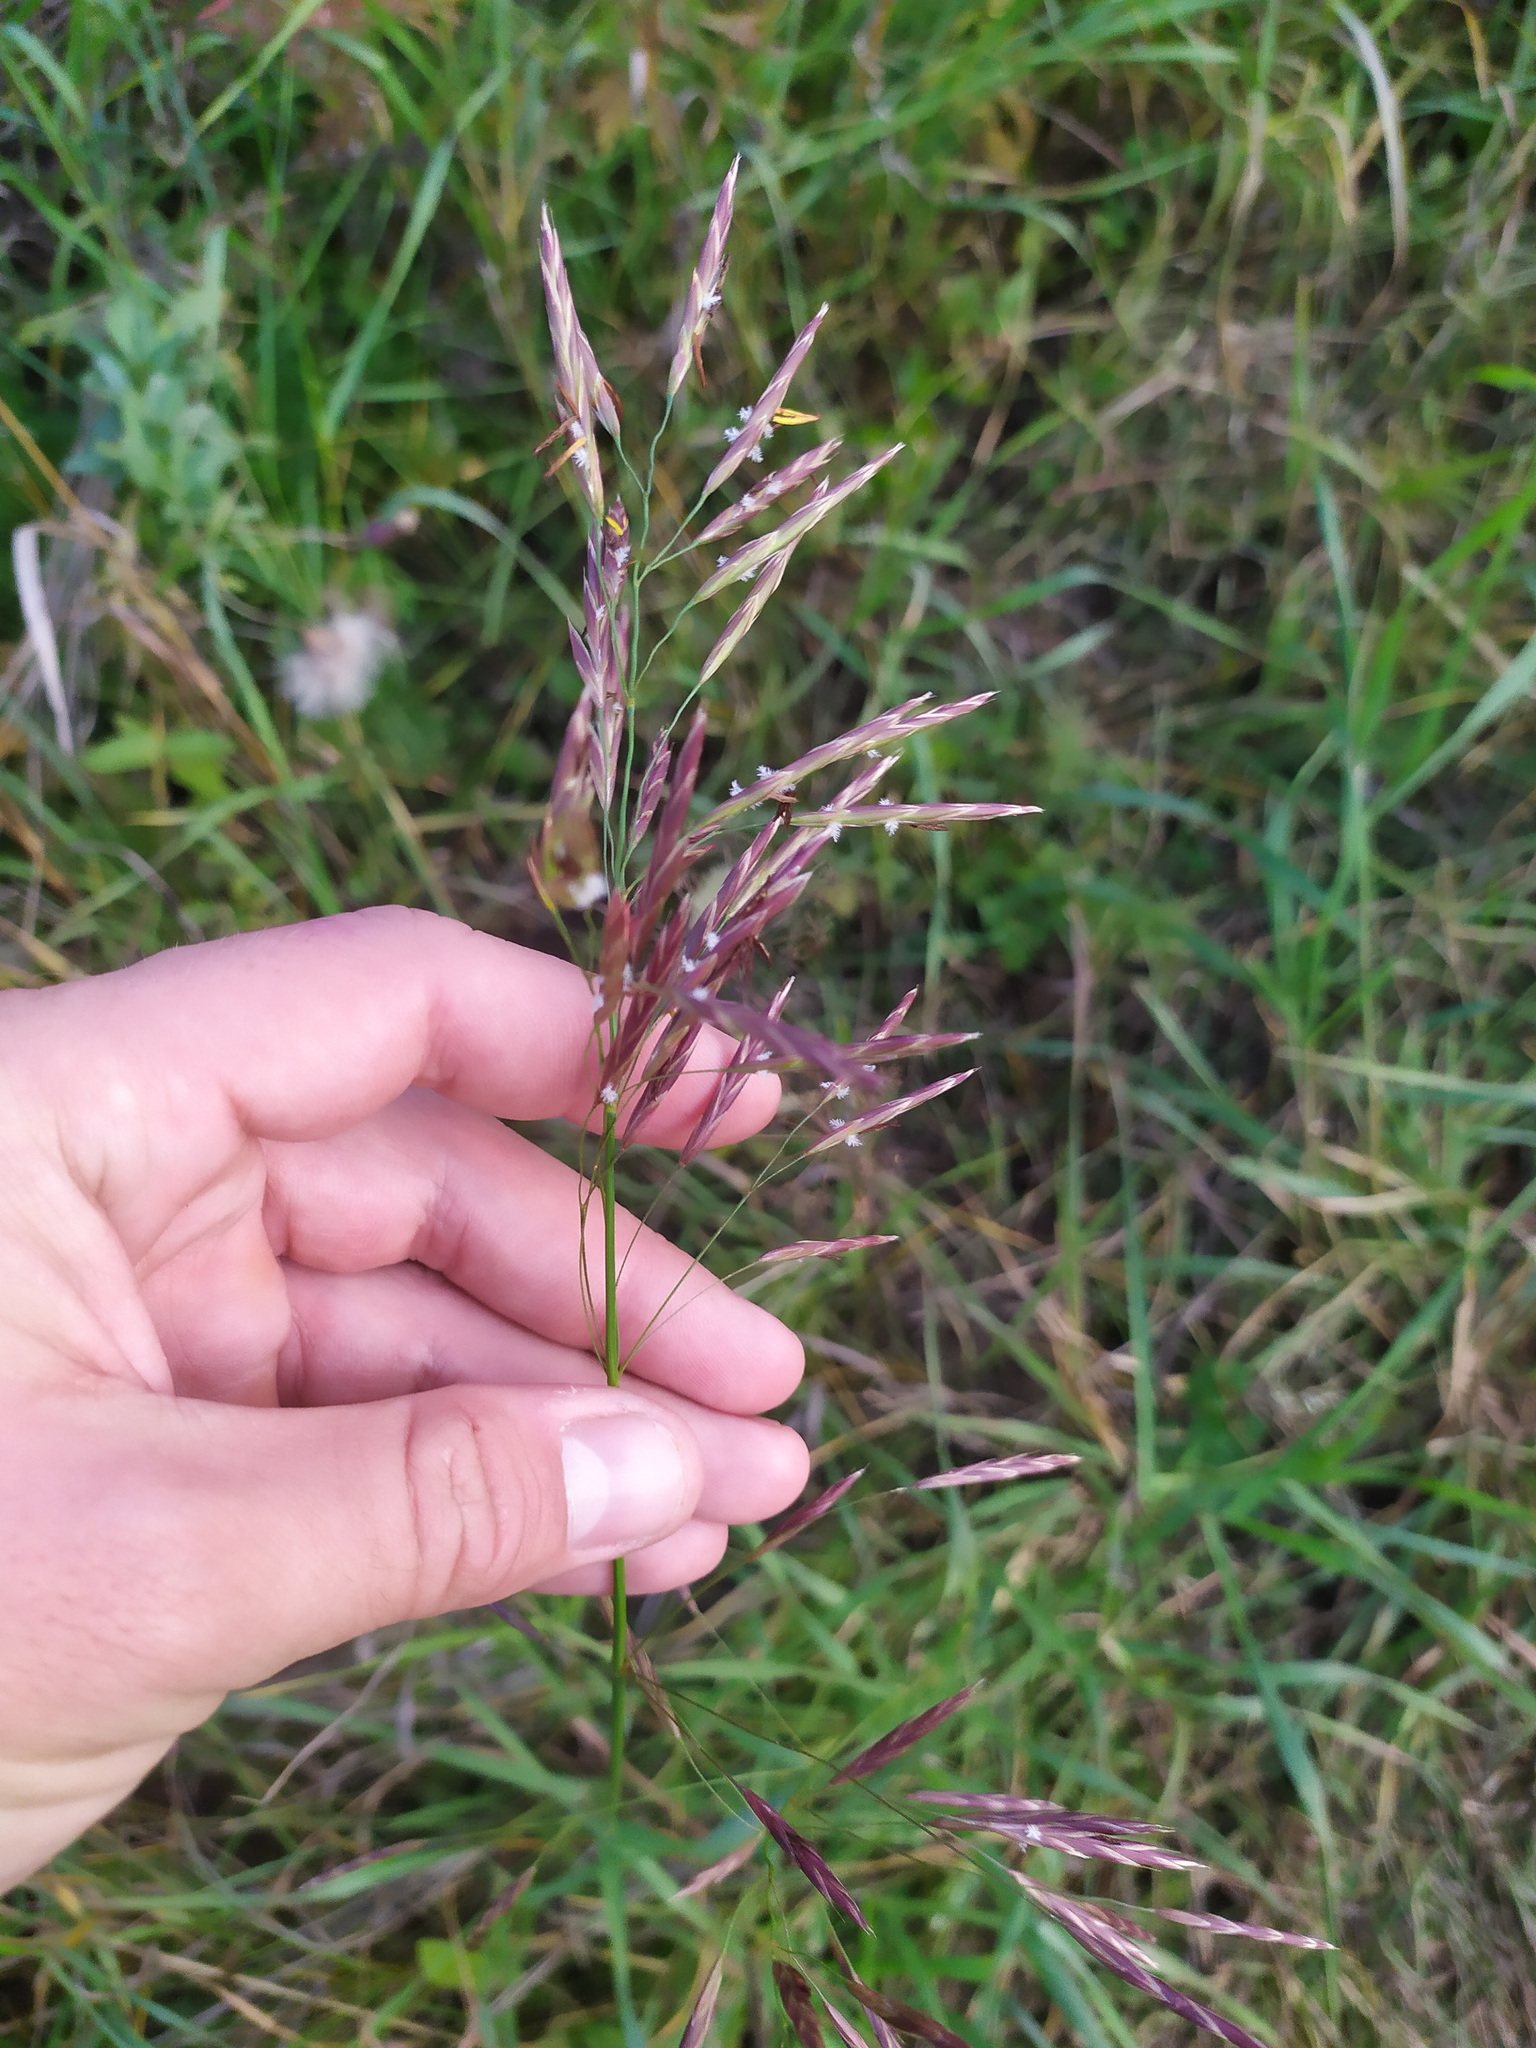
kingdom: Plantae
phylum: Tracheophyta
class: Liliopsida
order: Poales
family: Poaceae
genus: Bromus
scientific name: Bromus inermis
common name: Smooth brome
